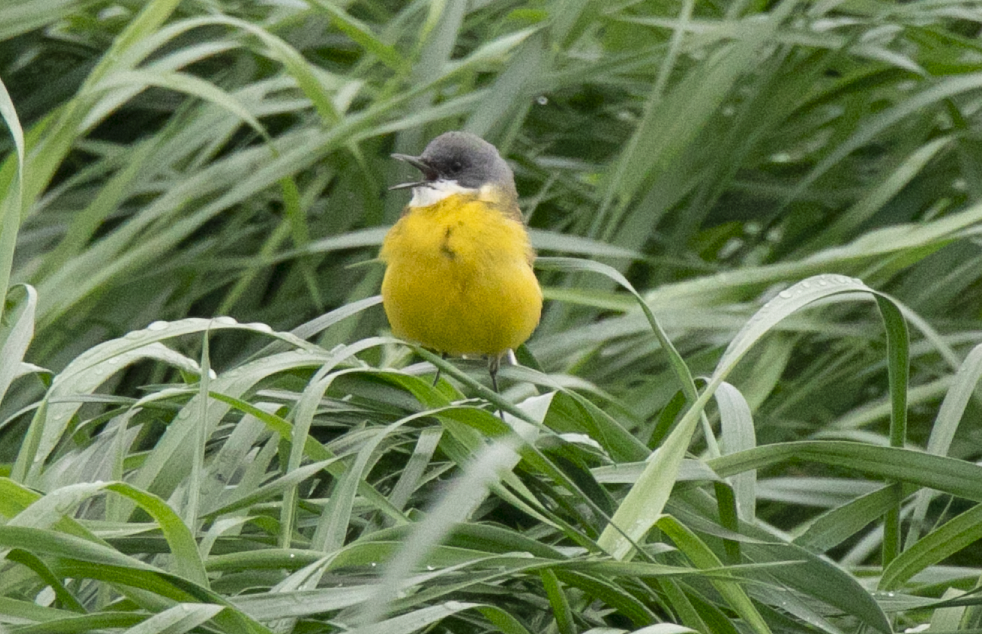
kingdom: Animalia
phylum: Chordata
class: Aves
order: Passeriformes
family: Motacillidae
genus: Motacilla
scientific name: Motacilla flava
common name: Western yellow wagtail
